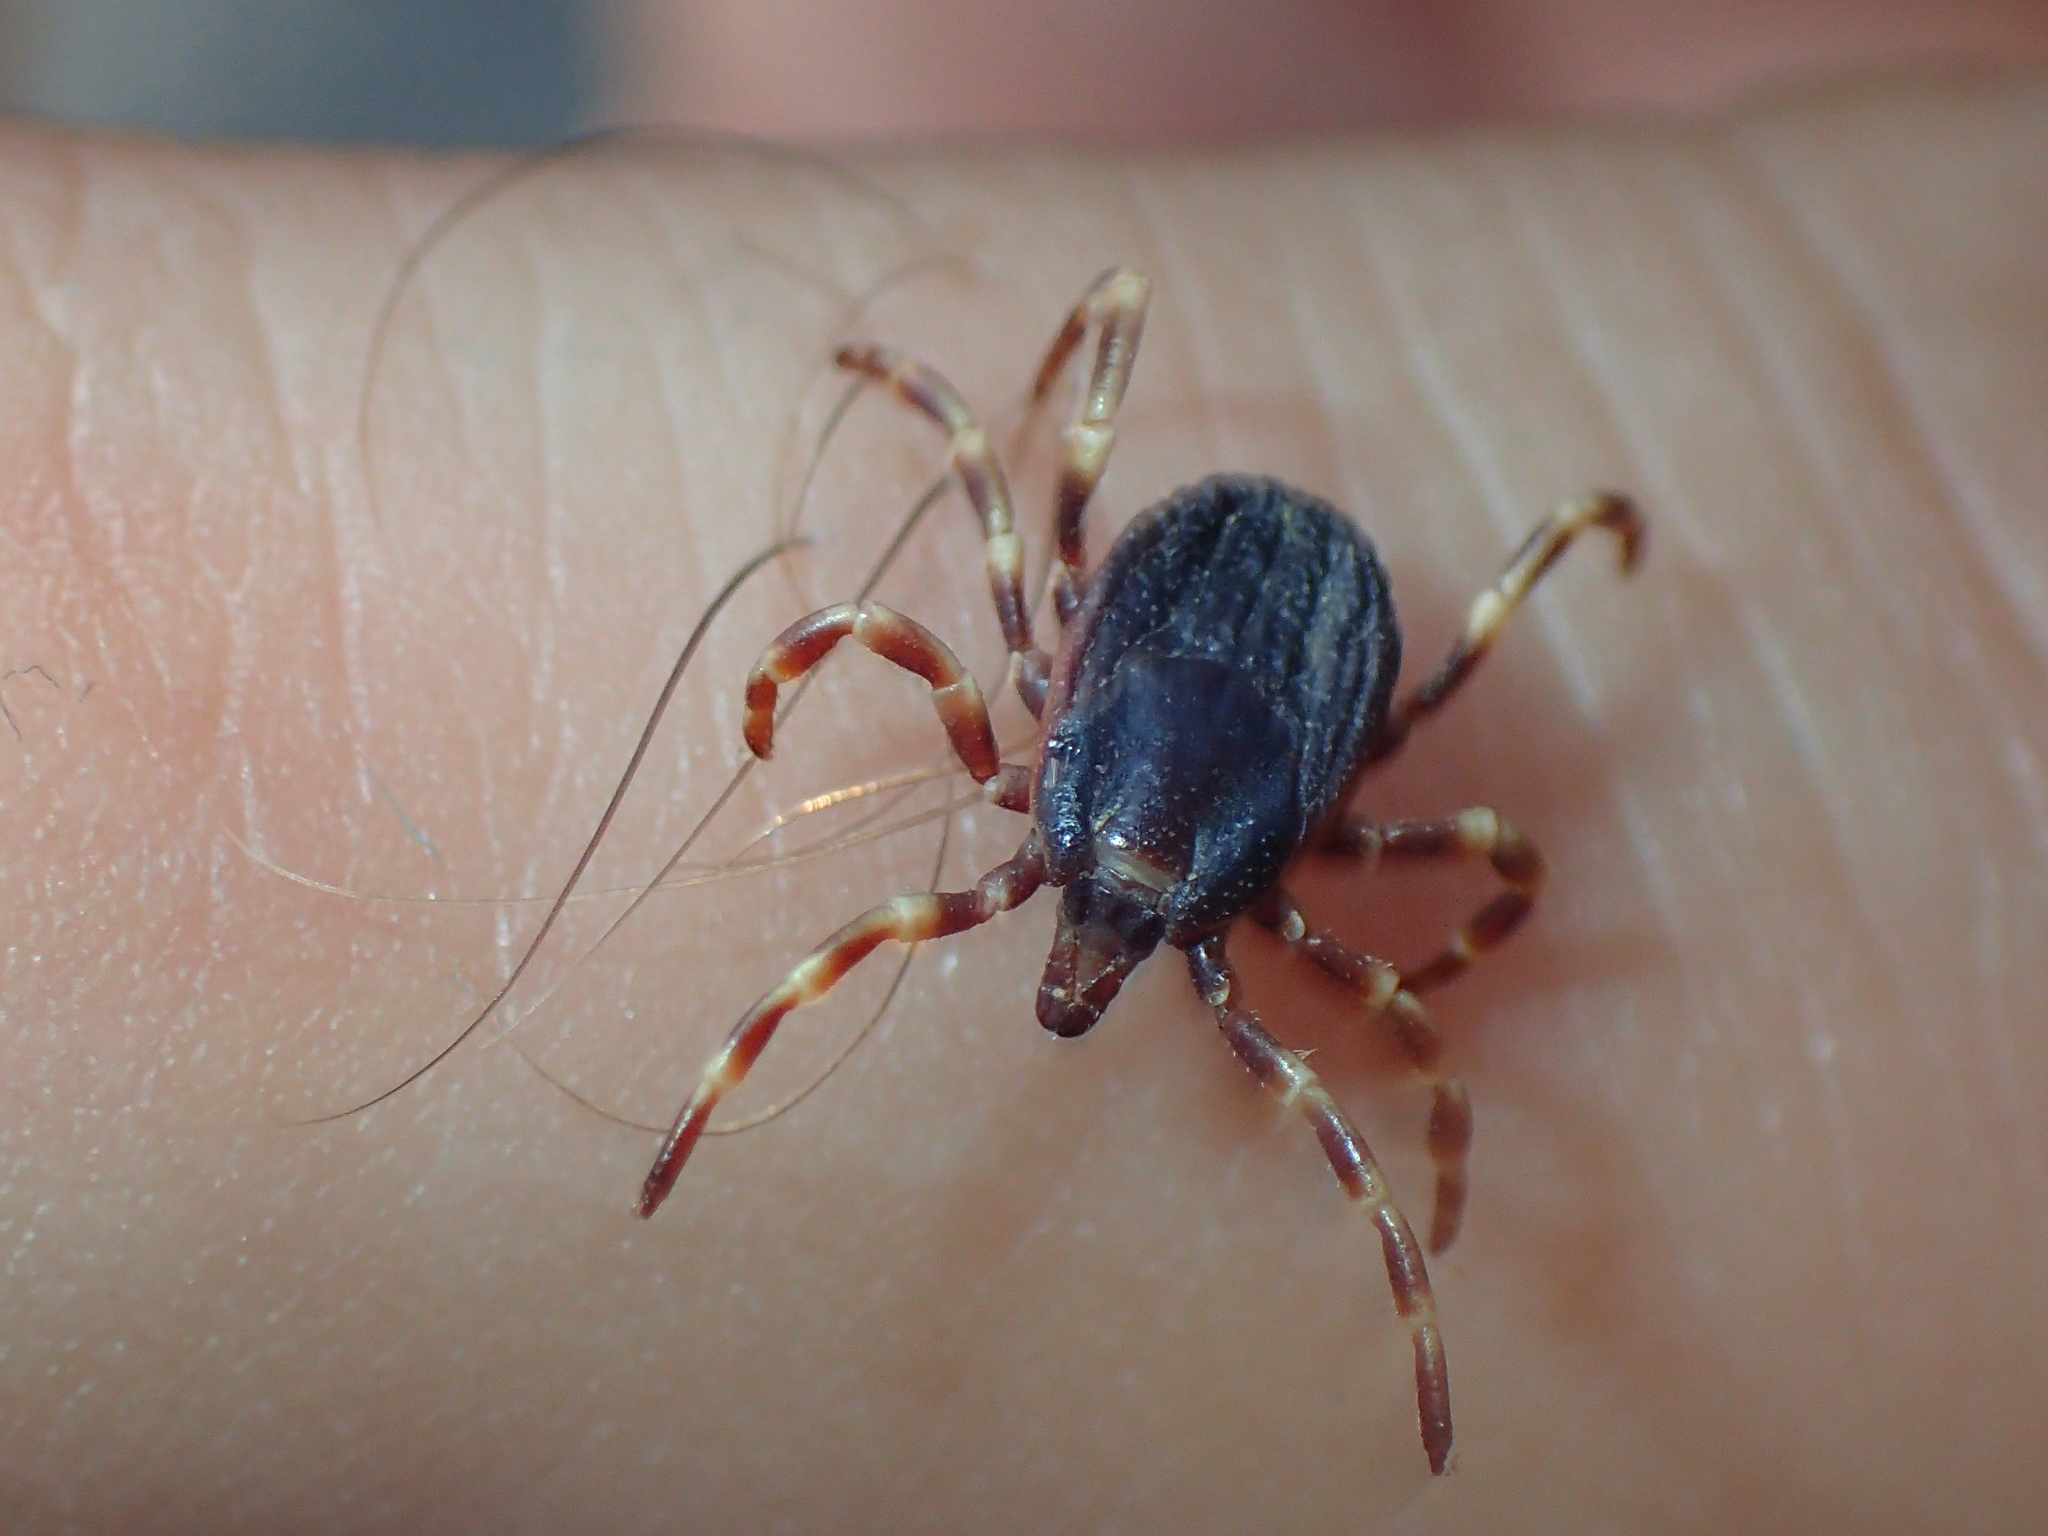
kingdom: Animalia
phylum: Arthropoda
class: Arachnida
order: Ixodida
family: Ixodidae
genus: Hyalomma
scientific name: Hyalomma marginatum
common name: Mediterranean hyalomma
